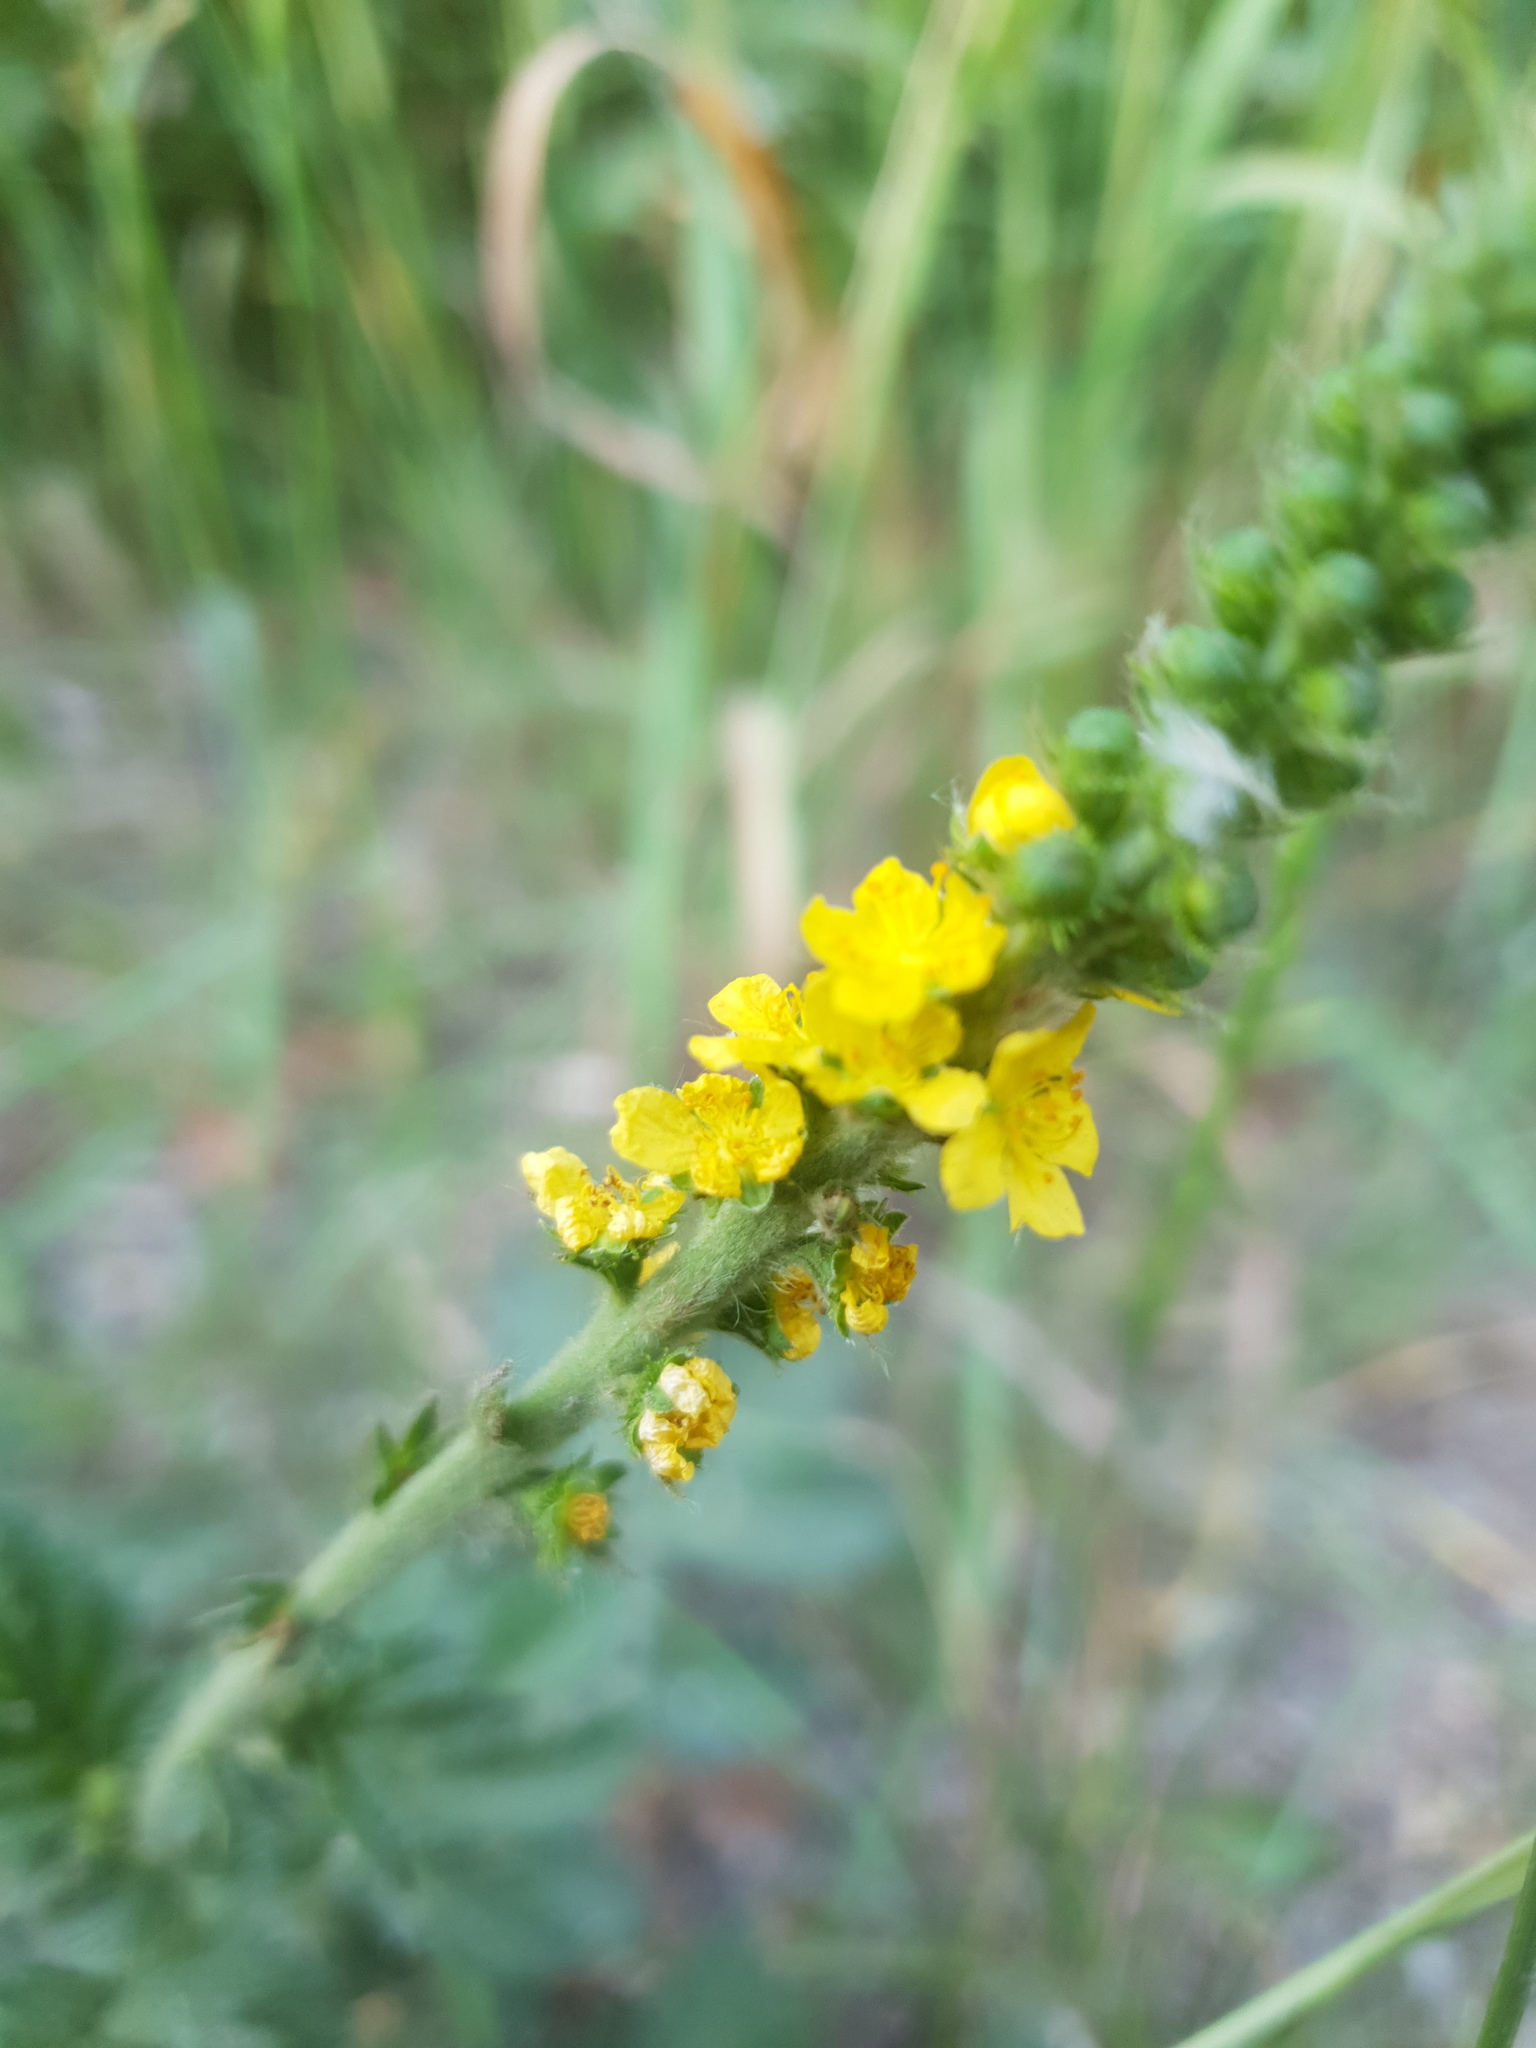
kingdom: Plantae
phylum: Tracheophyta
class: Magnoliopsida
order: Rosales
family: Rosaceae
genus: Agrimonia
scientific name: Agrimonia eupatoria
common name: Agrimony
